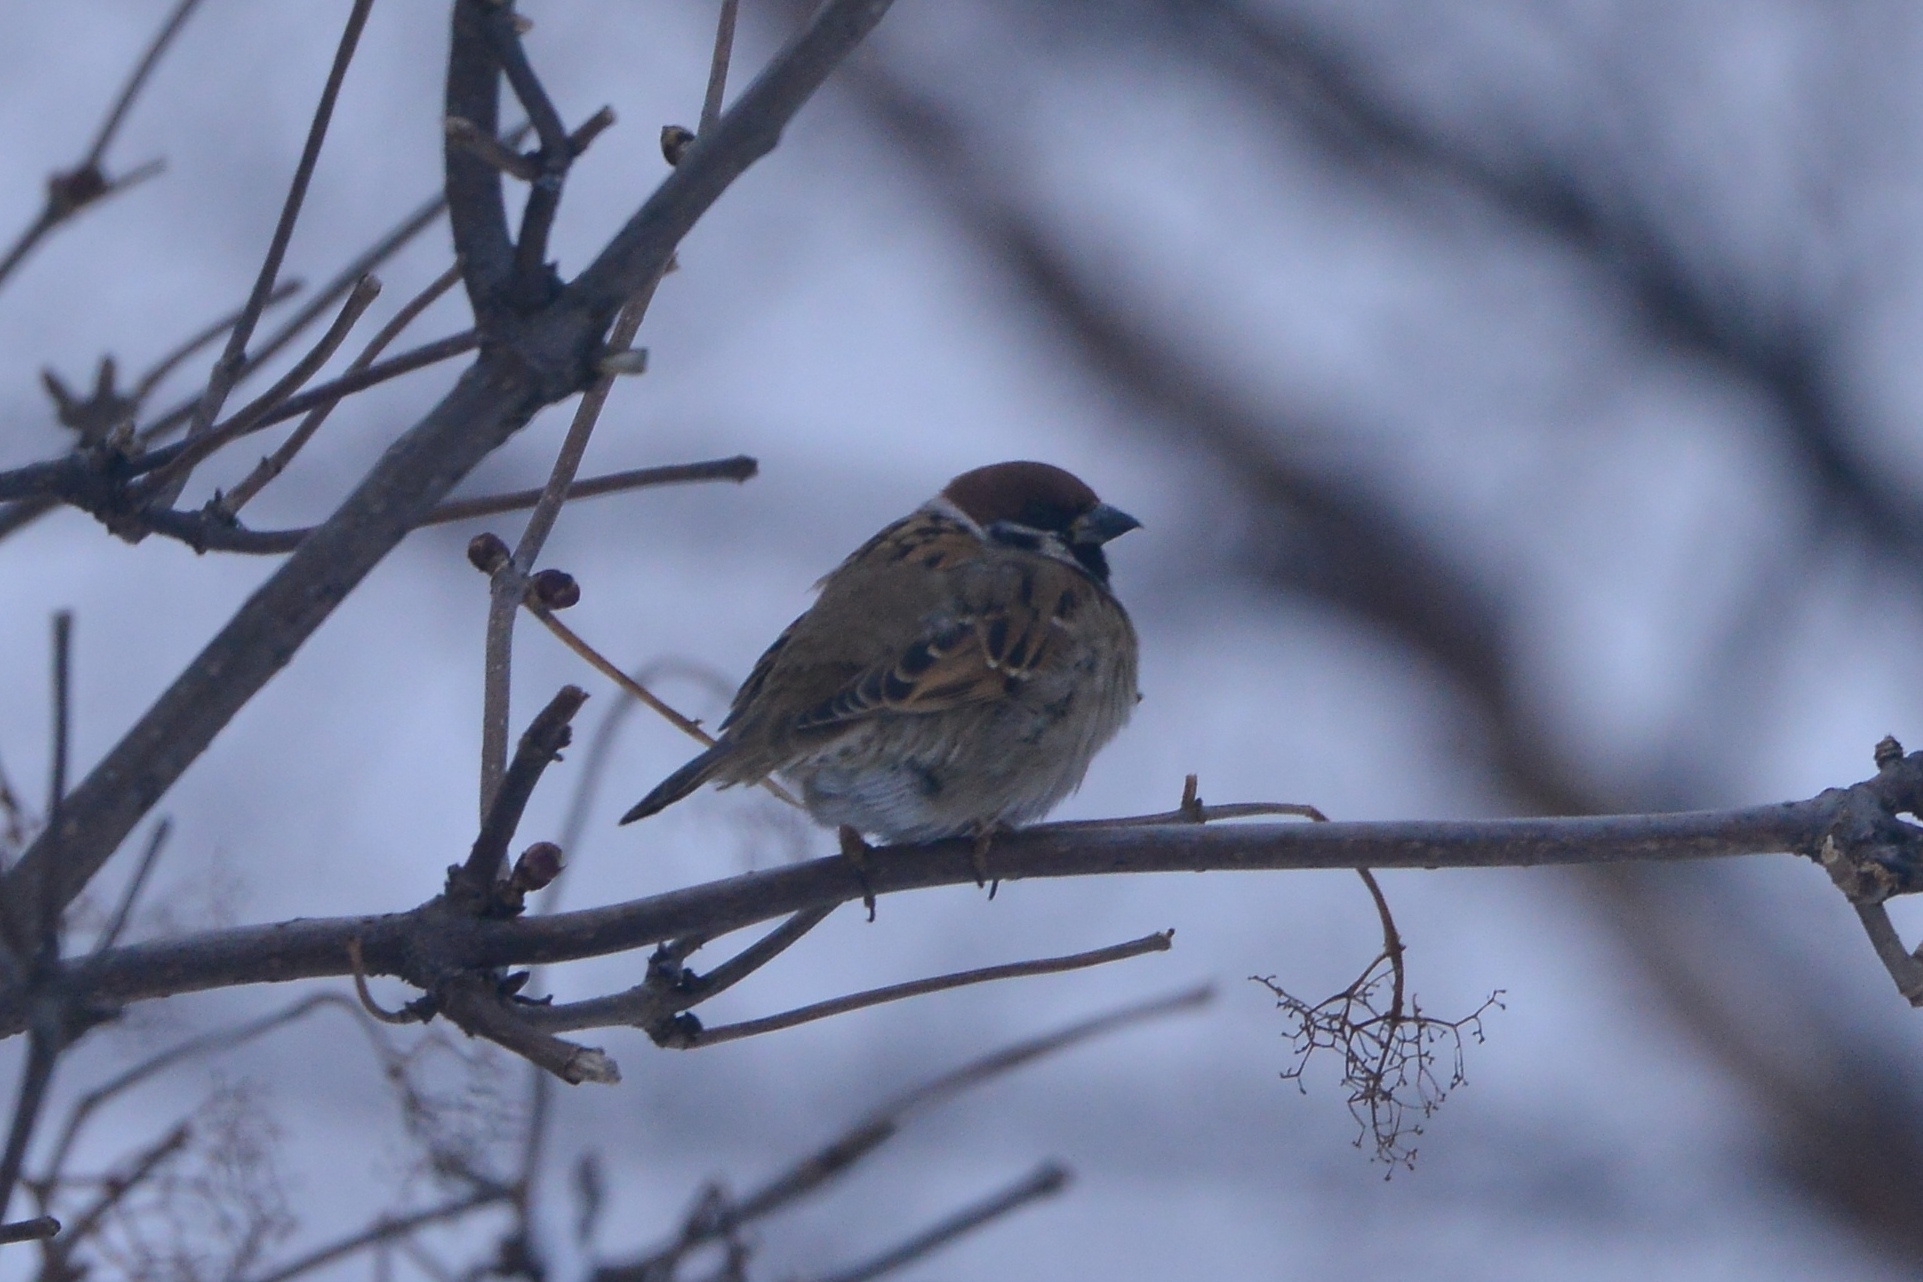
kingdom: Animalia
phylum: Chordata
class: Aves
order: Passeriformes
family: Passeridae
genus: Passer
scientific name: Passer montanus
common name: Eurasian tree sparrow
